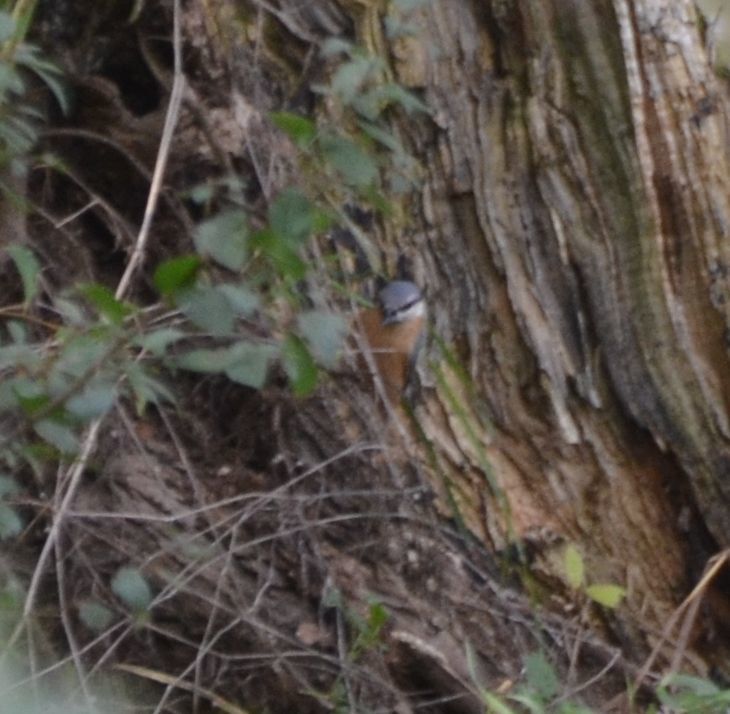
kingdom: Animalia
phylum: Chordata
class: Aves
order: Passeriformes
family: Sittidae
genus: Sitta
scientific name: Sitta europaea
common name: Eurasian nuthatch
